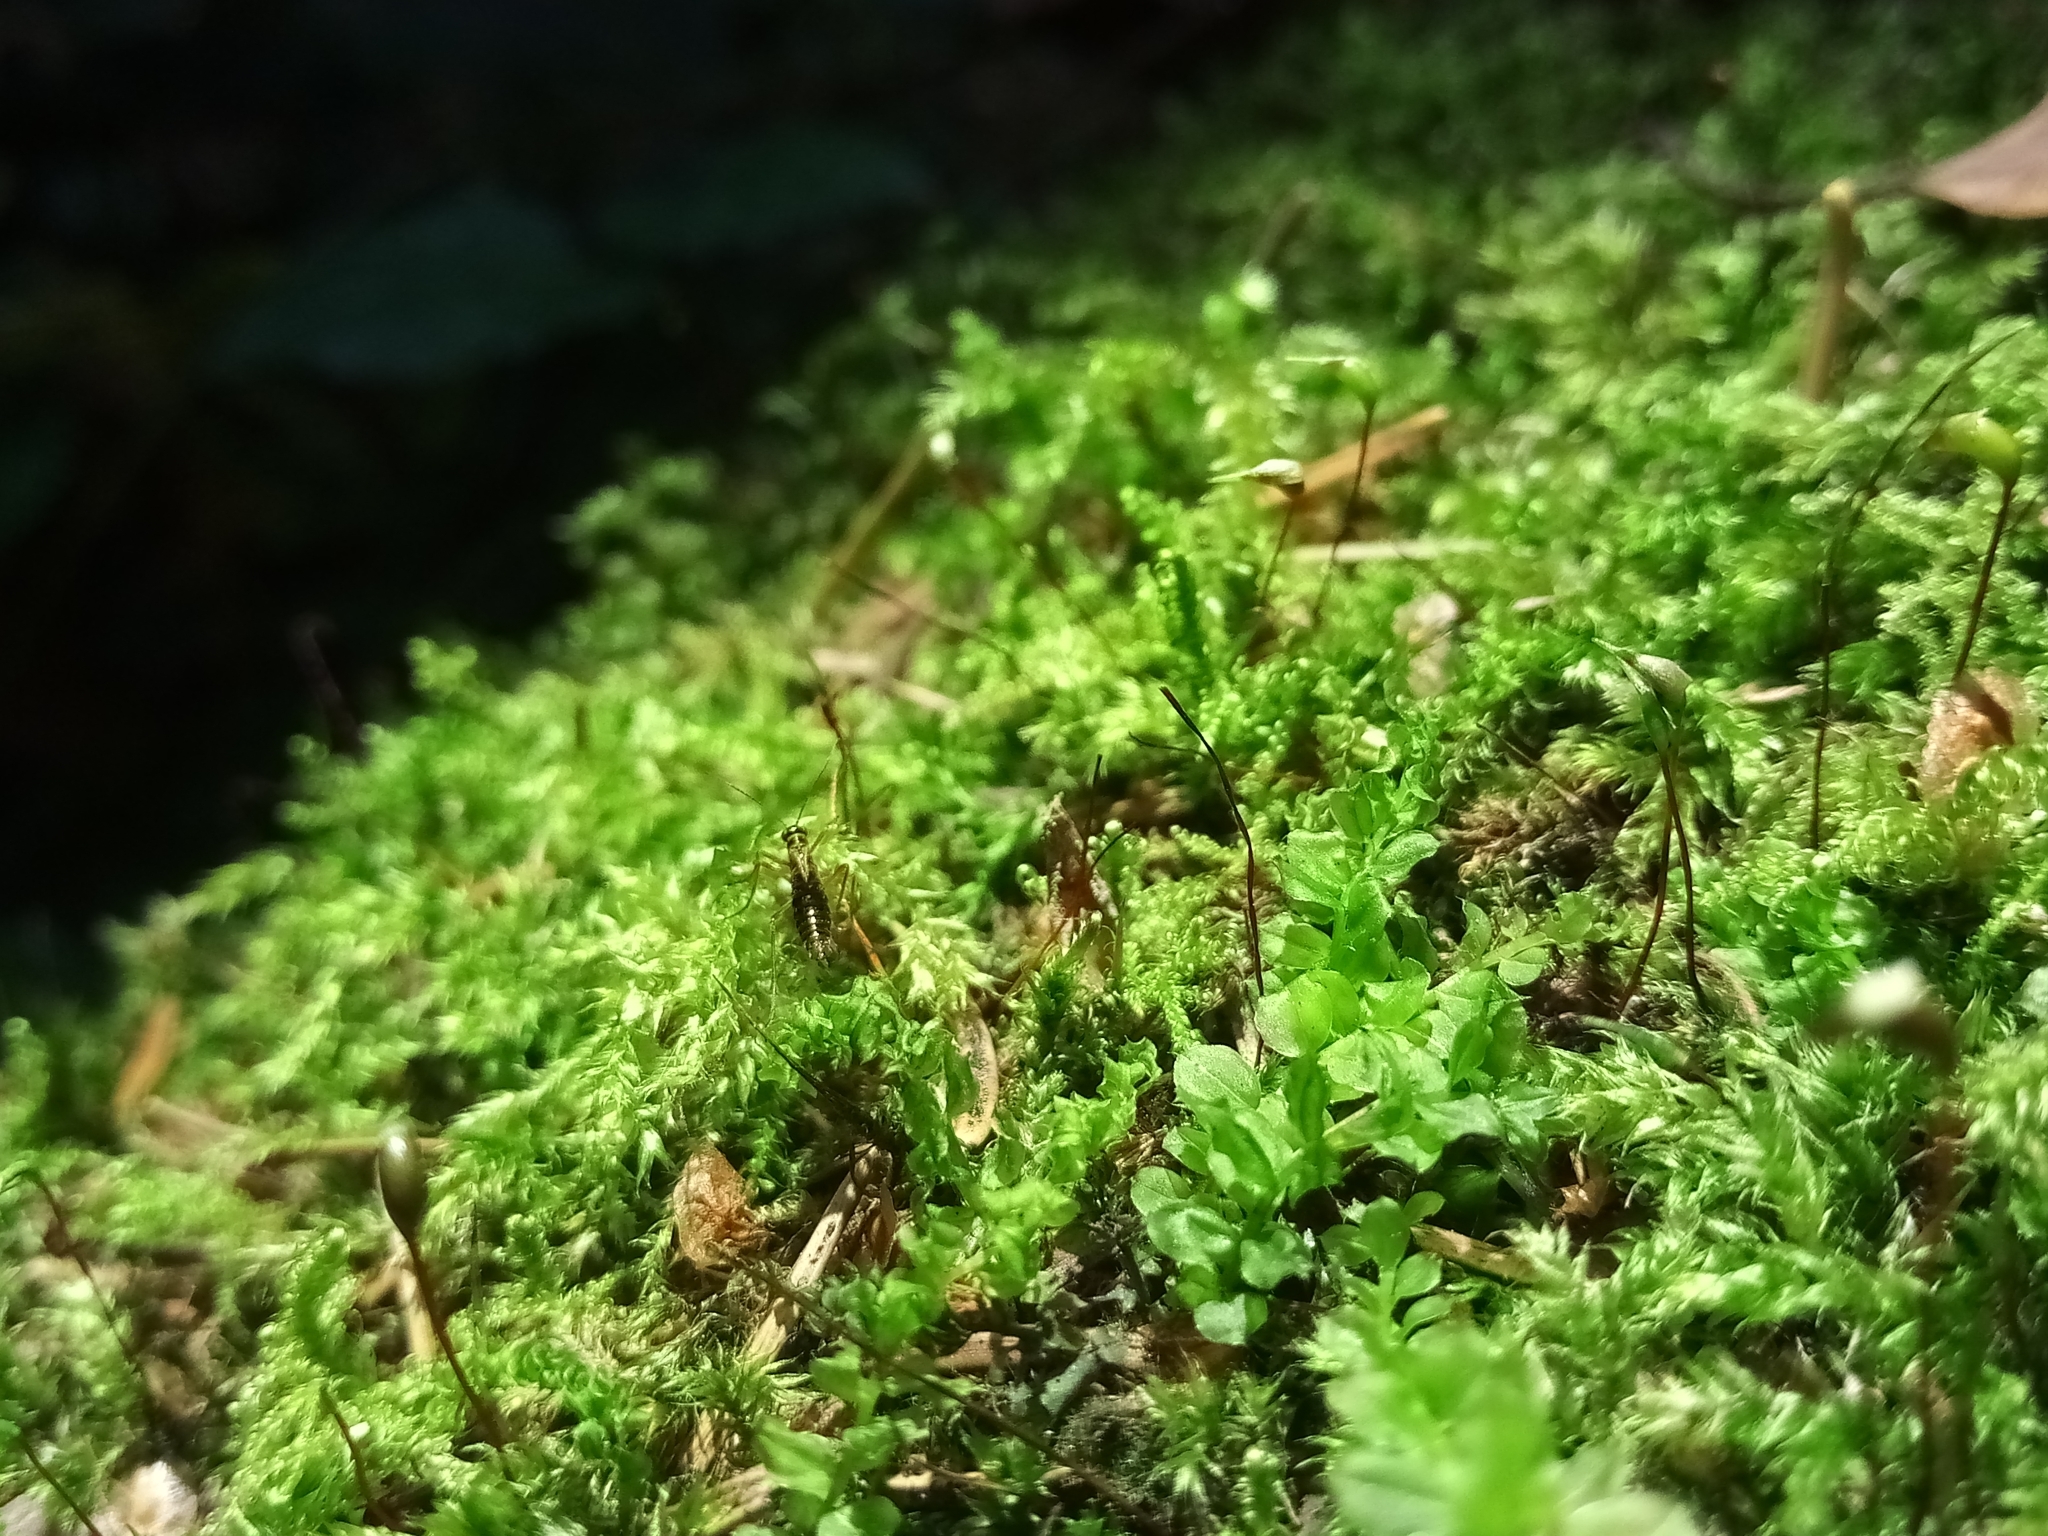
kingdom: Animalia
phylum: Arthropoda
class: Insecta
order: Mecoptera
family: Boreidae
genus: Boreus
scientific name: Boreus westwoodi
